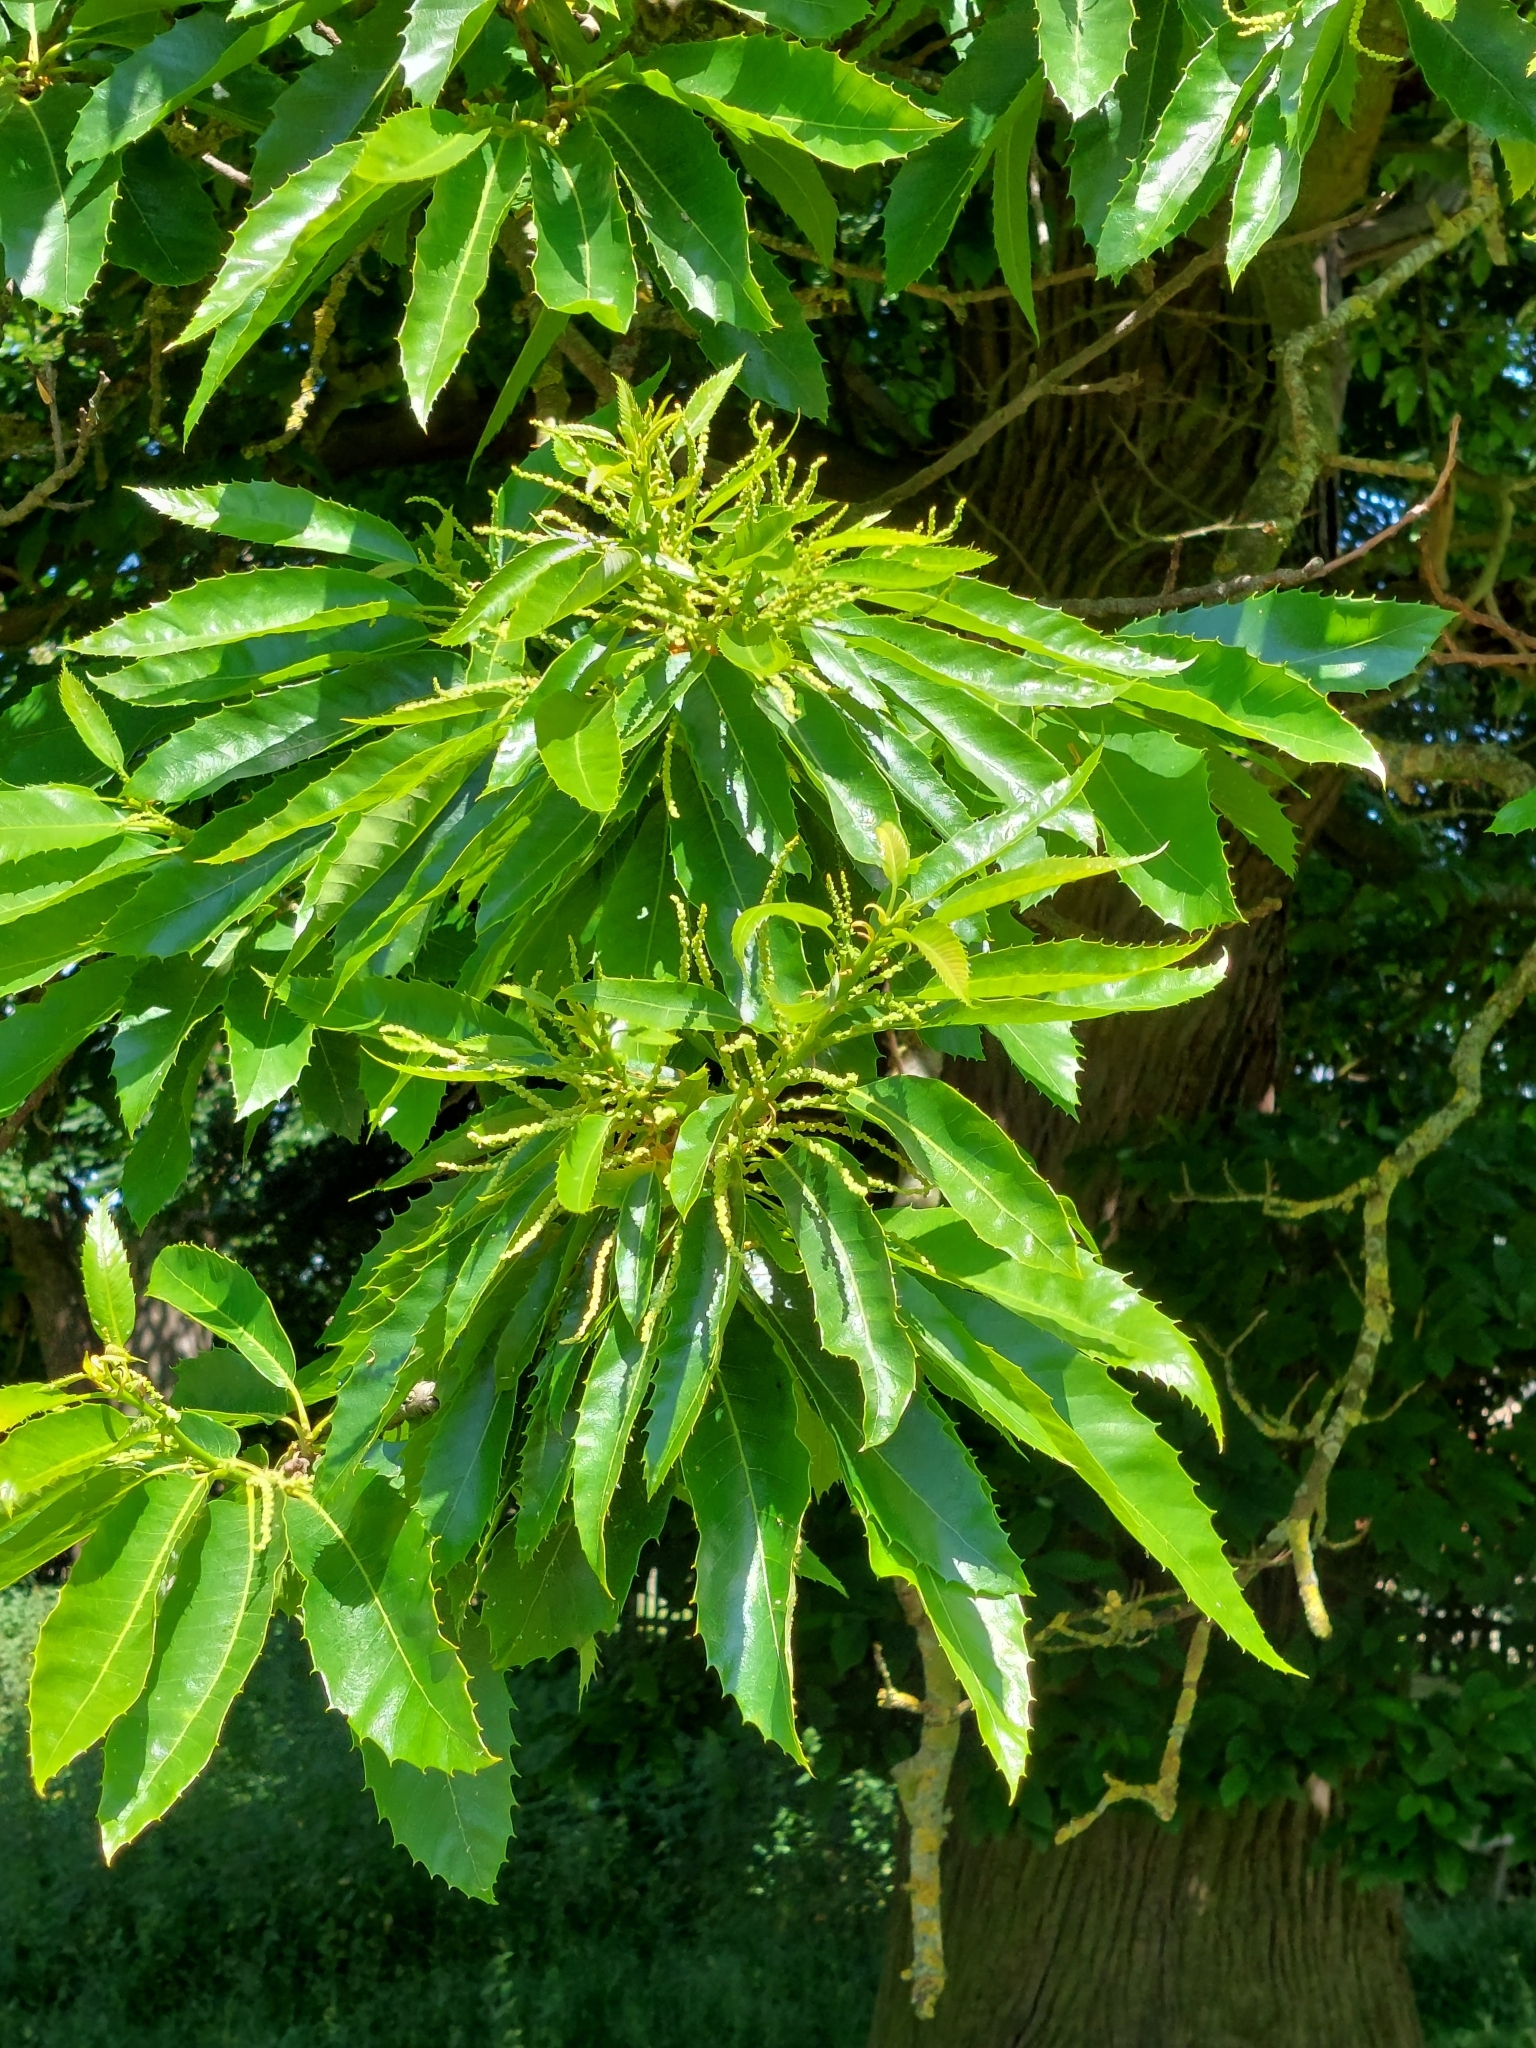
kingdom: Plantae
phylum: Tracheophyta
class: Magnoliopsida
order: Fagales
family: Fagaceae
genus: Castanea
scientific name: Castanea sativa
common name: Sweet chestnut
